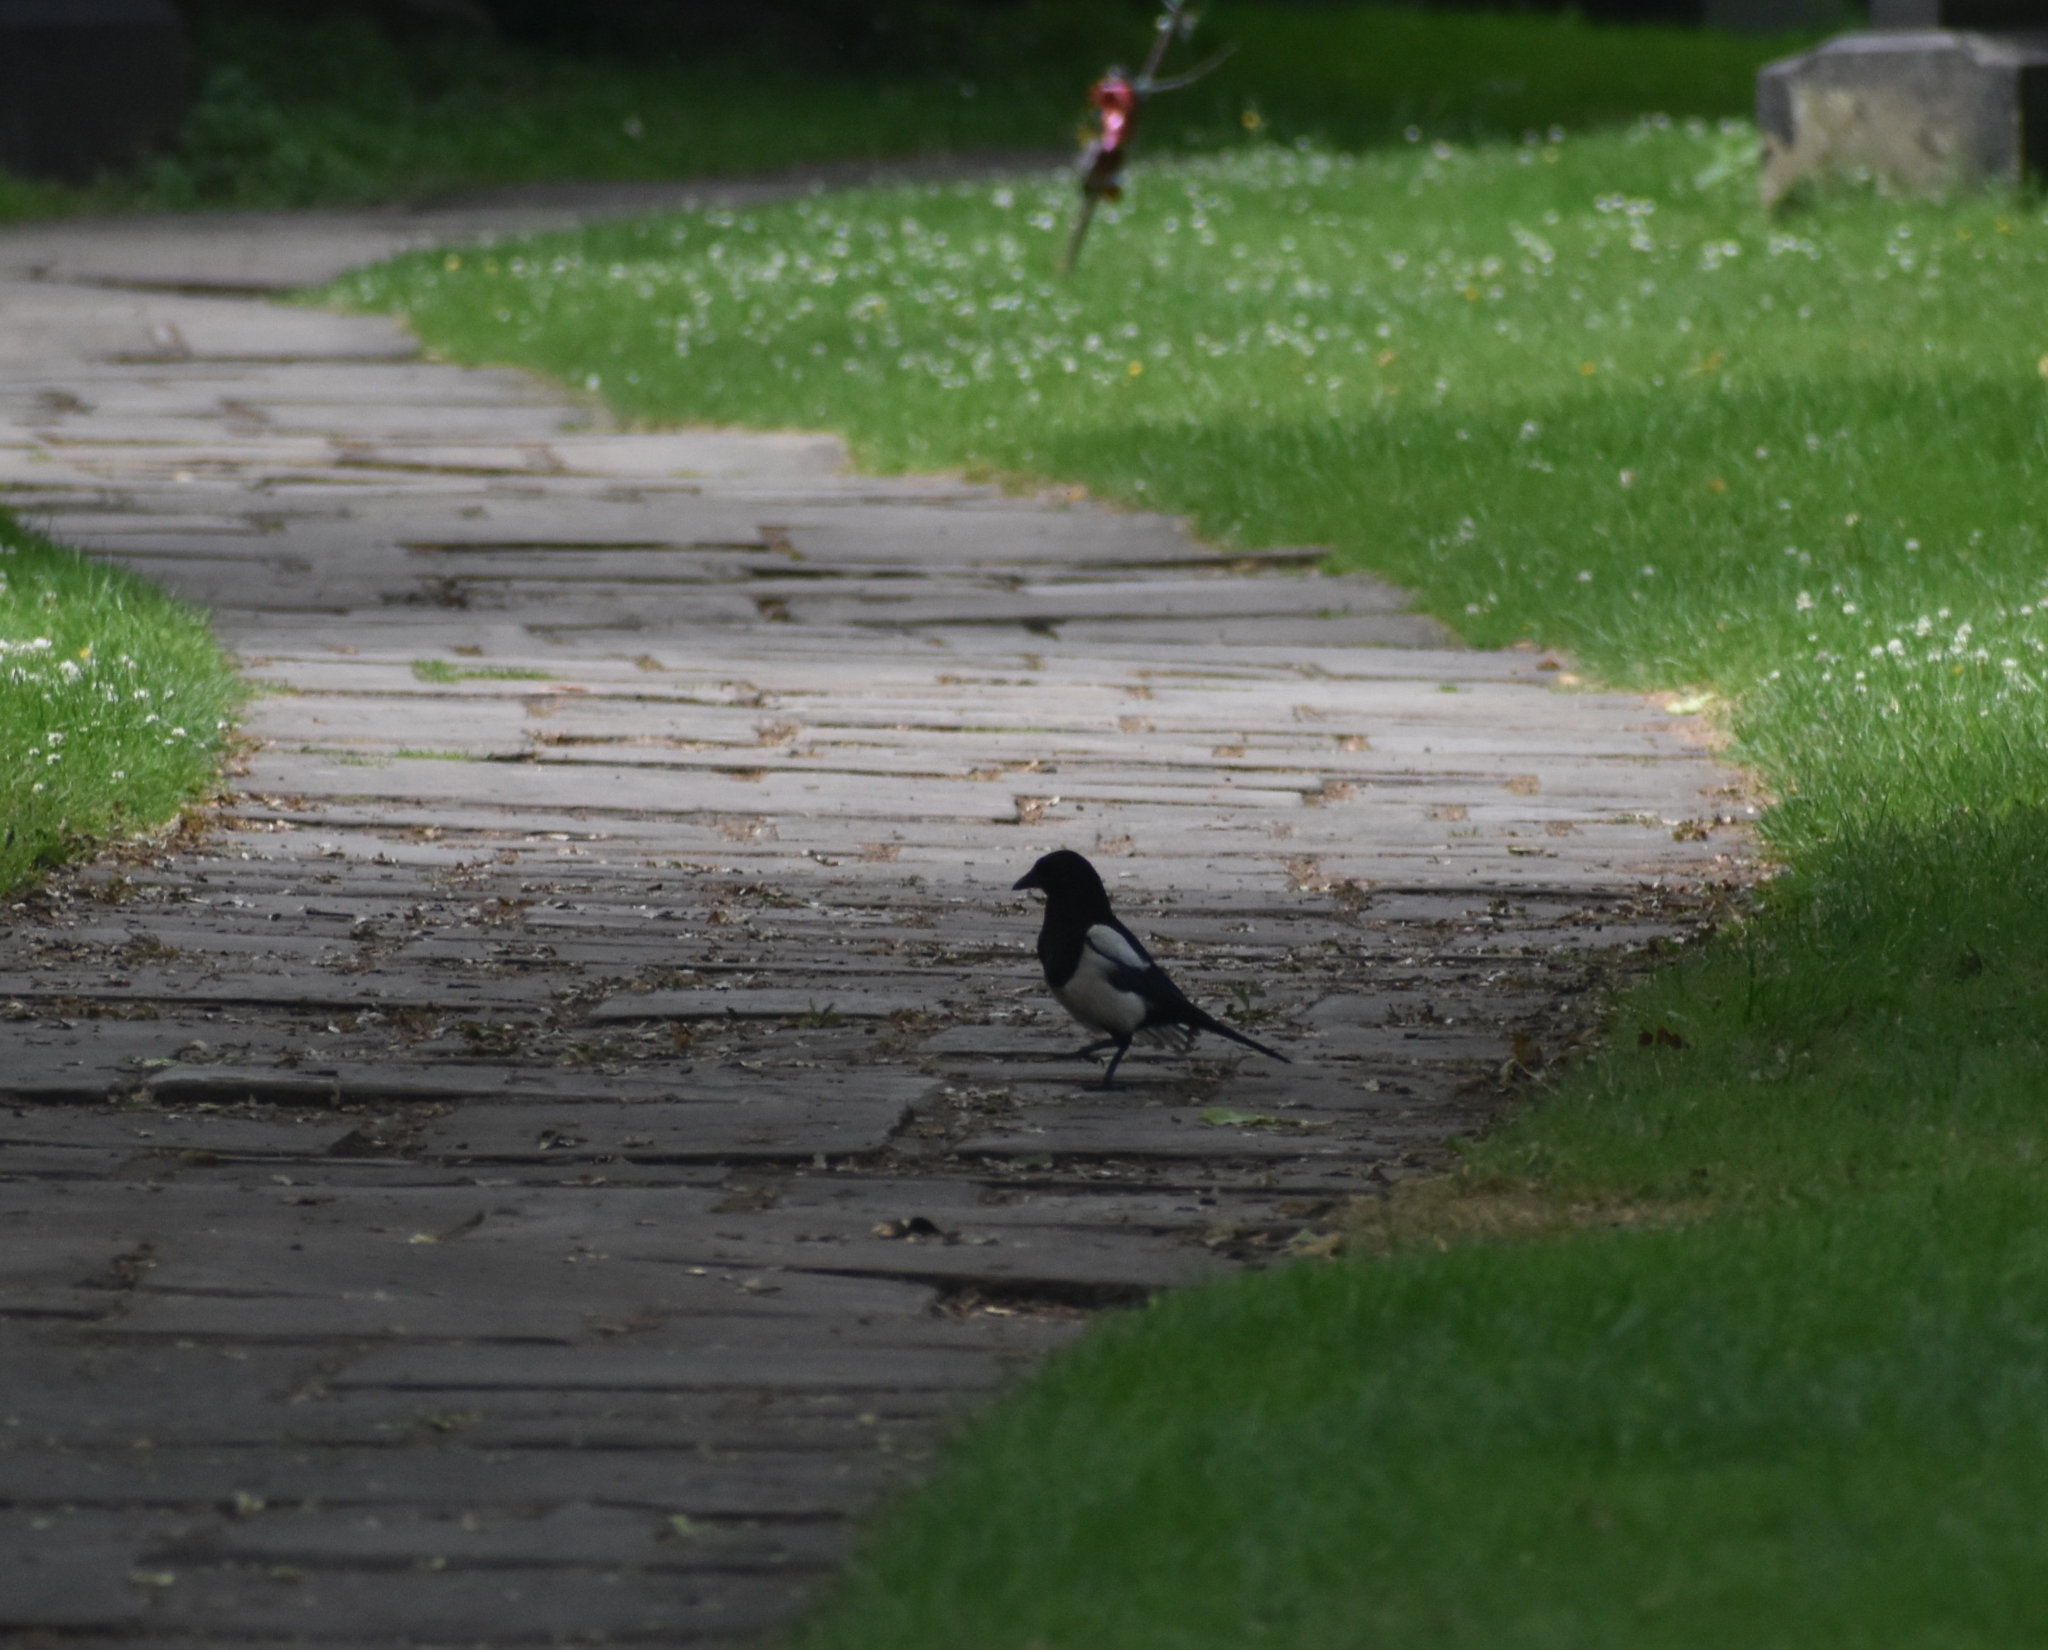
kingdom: Animalia
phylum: Chordata
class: Aves
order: Passeriformes
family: Corvidae
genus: Pica
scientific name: Pica pica
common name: Eurasian magpie
